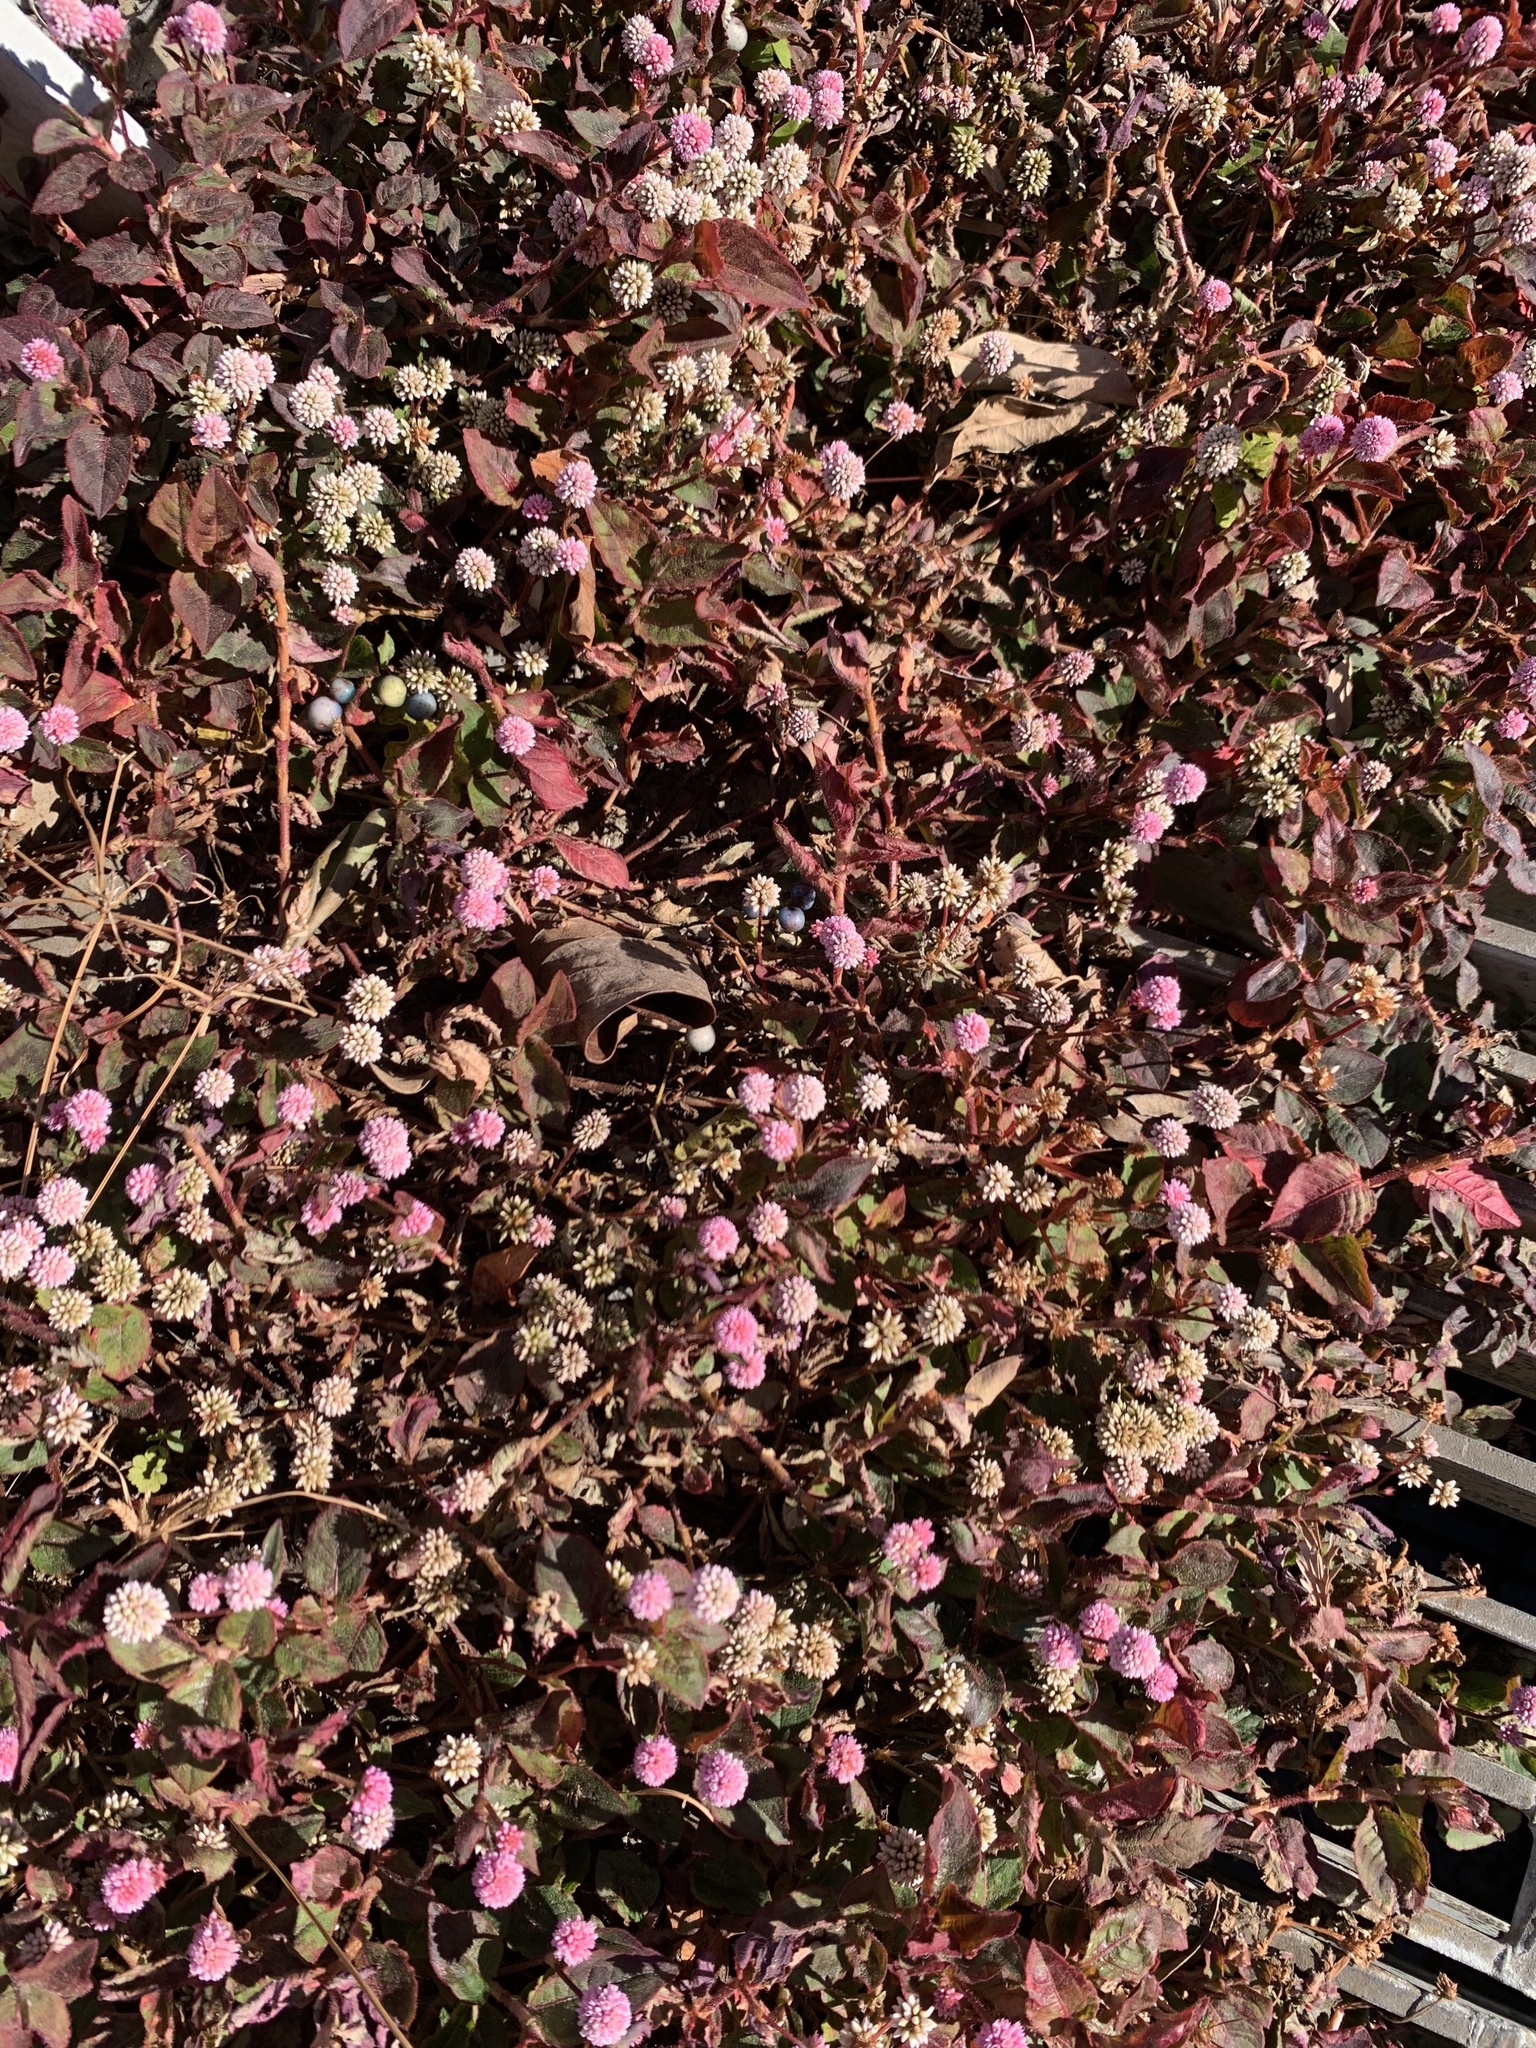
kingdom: Plantae
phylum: Tracheophyta
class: Magnoliopsida
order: Caryophyllales
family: Polygonaceae
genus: Persicaria
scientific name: Persicaria capitata
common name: Pinkhead smartweed
